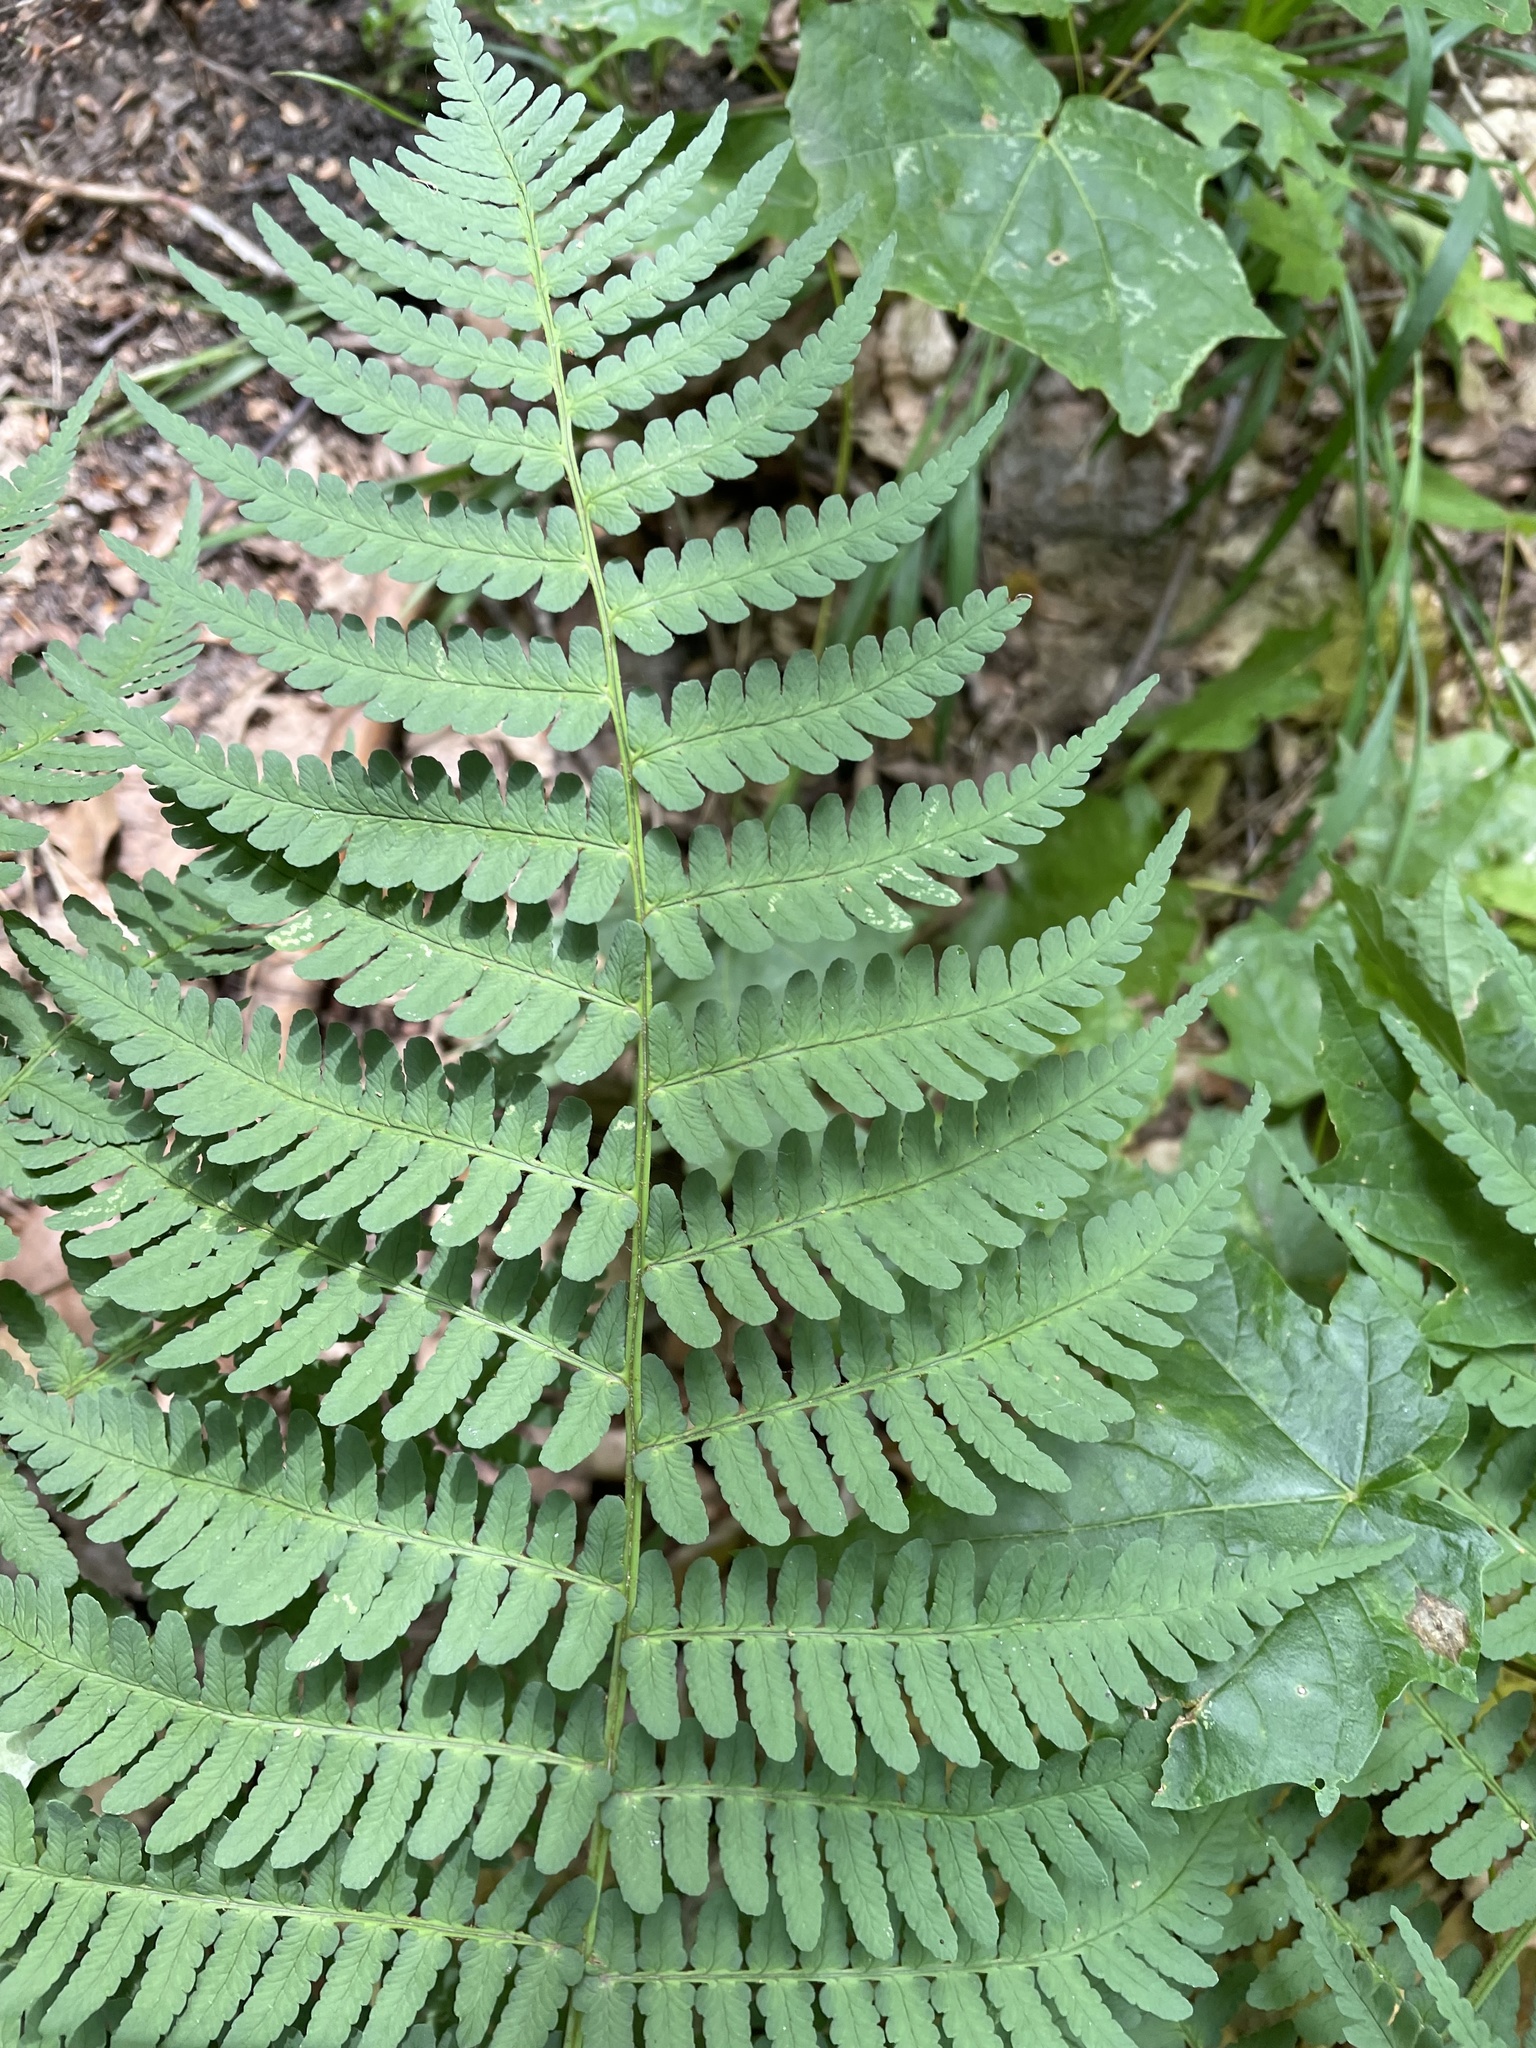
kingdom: Plantae
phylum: Tracheophyta
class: Polypodiopsida
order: Polypodiales
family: Dryopteridaceae
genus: Dryopteris
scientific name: Dryopteris marginalis
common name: Marginal wood fern
